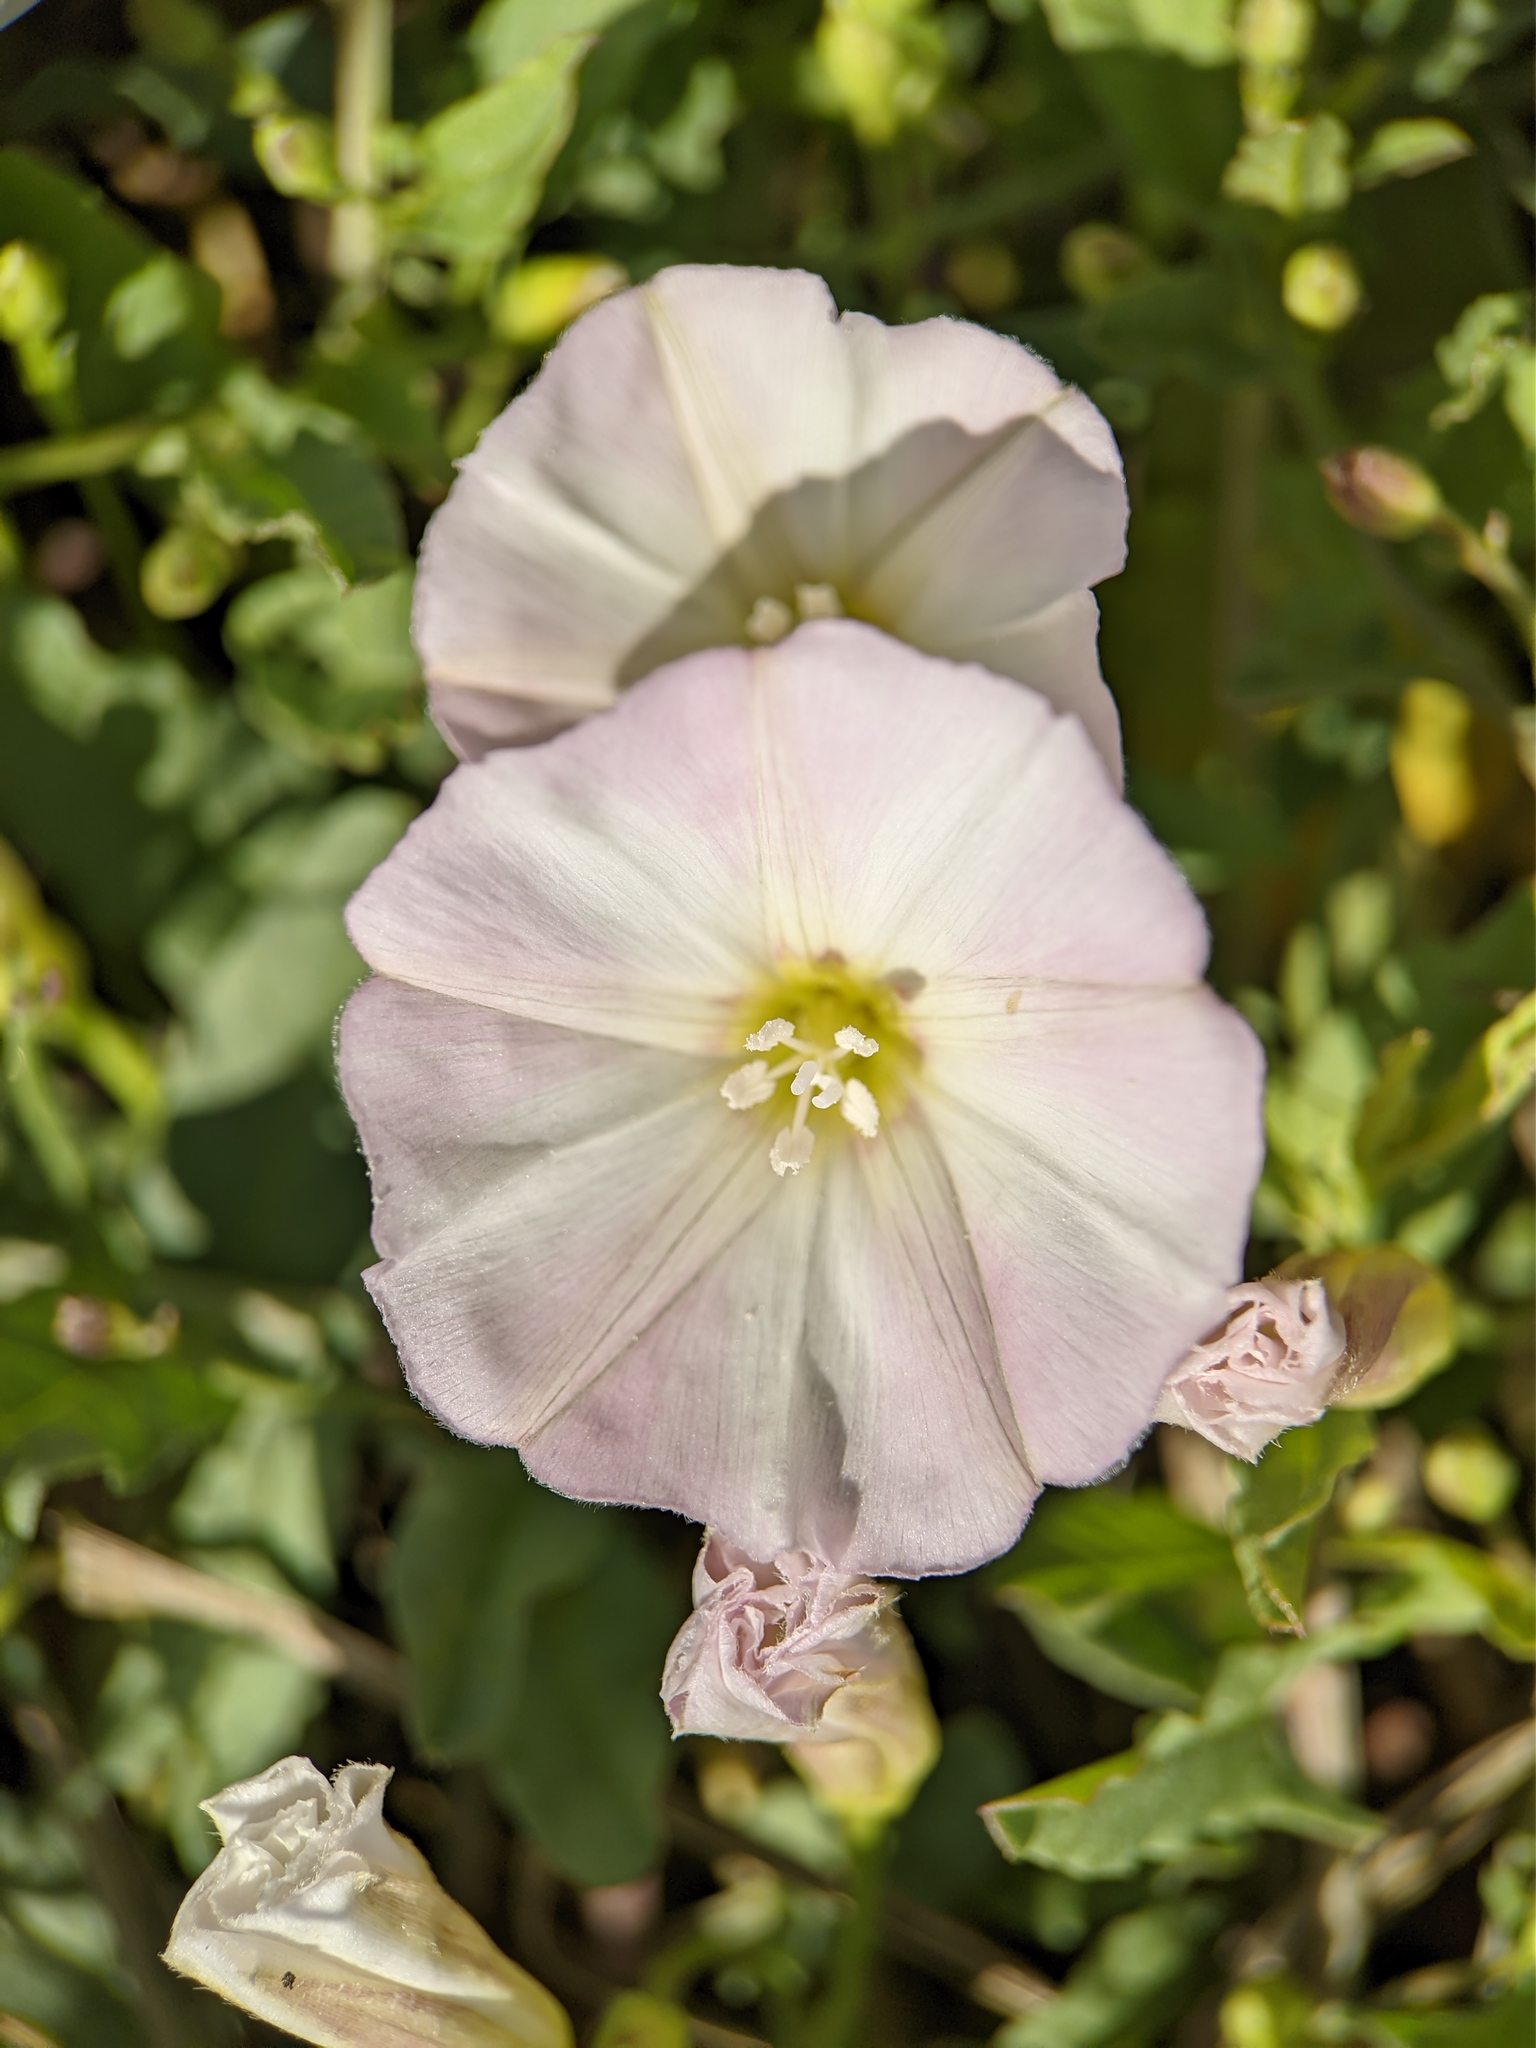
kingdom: Plantae
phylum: Tracheophyta
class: Magnoliopsida
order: Solanales
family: Convolvulaceae
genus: Convolvulus
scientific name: Convolvulus arvensis
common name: Field bindweed
